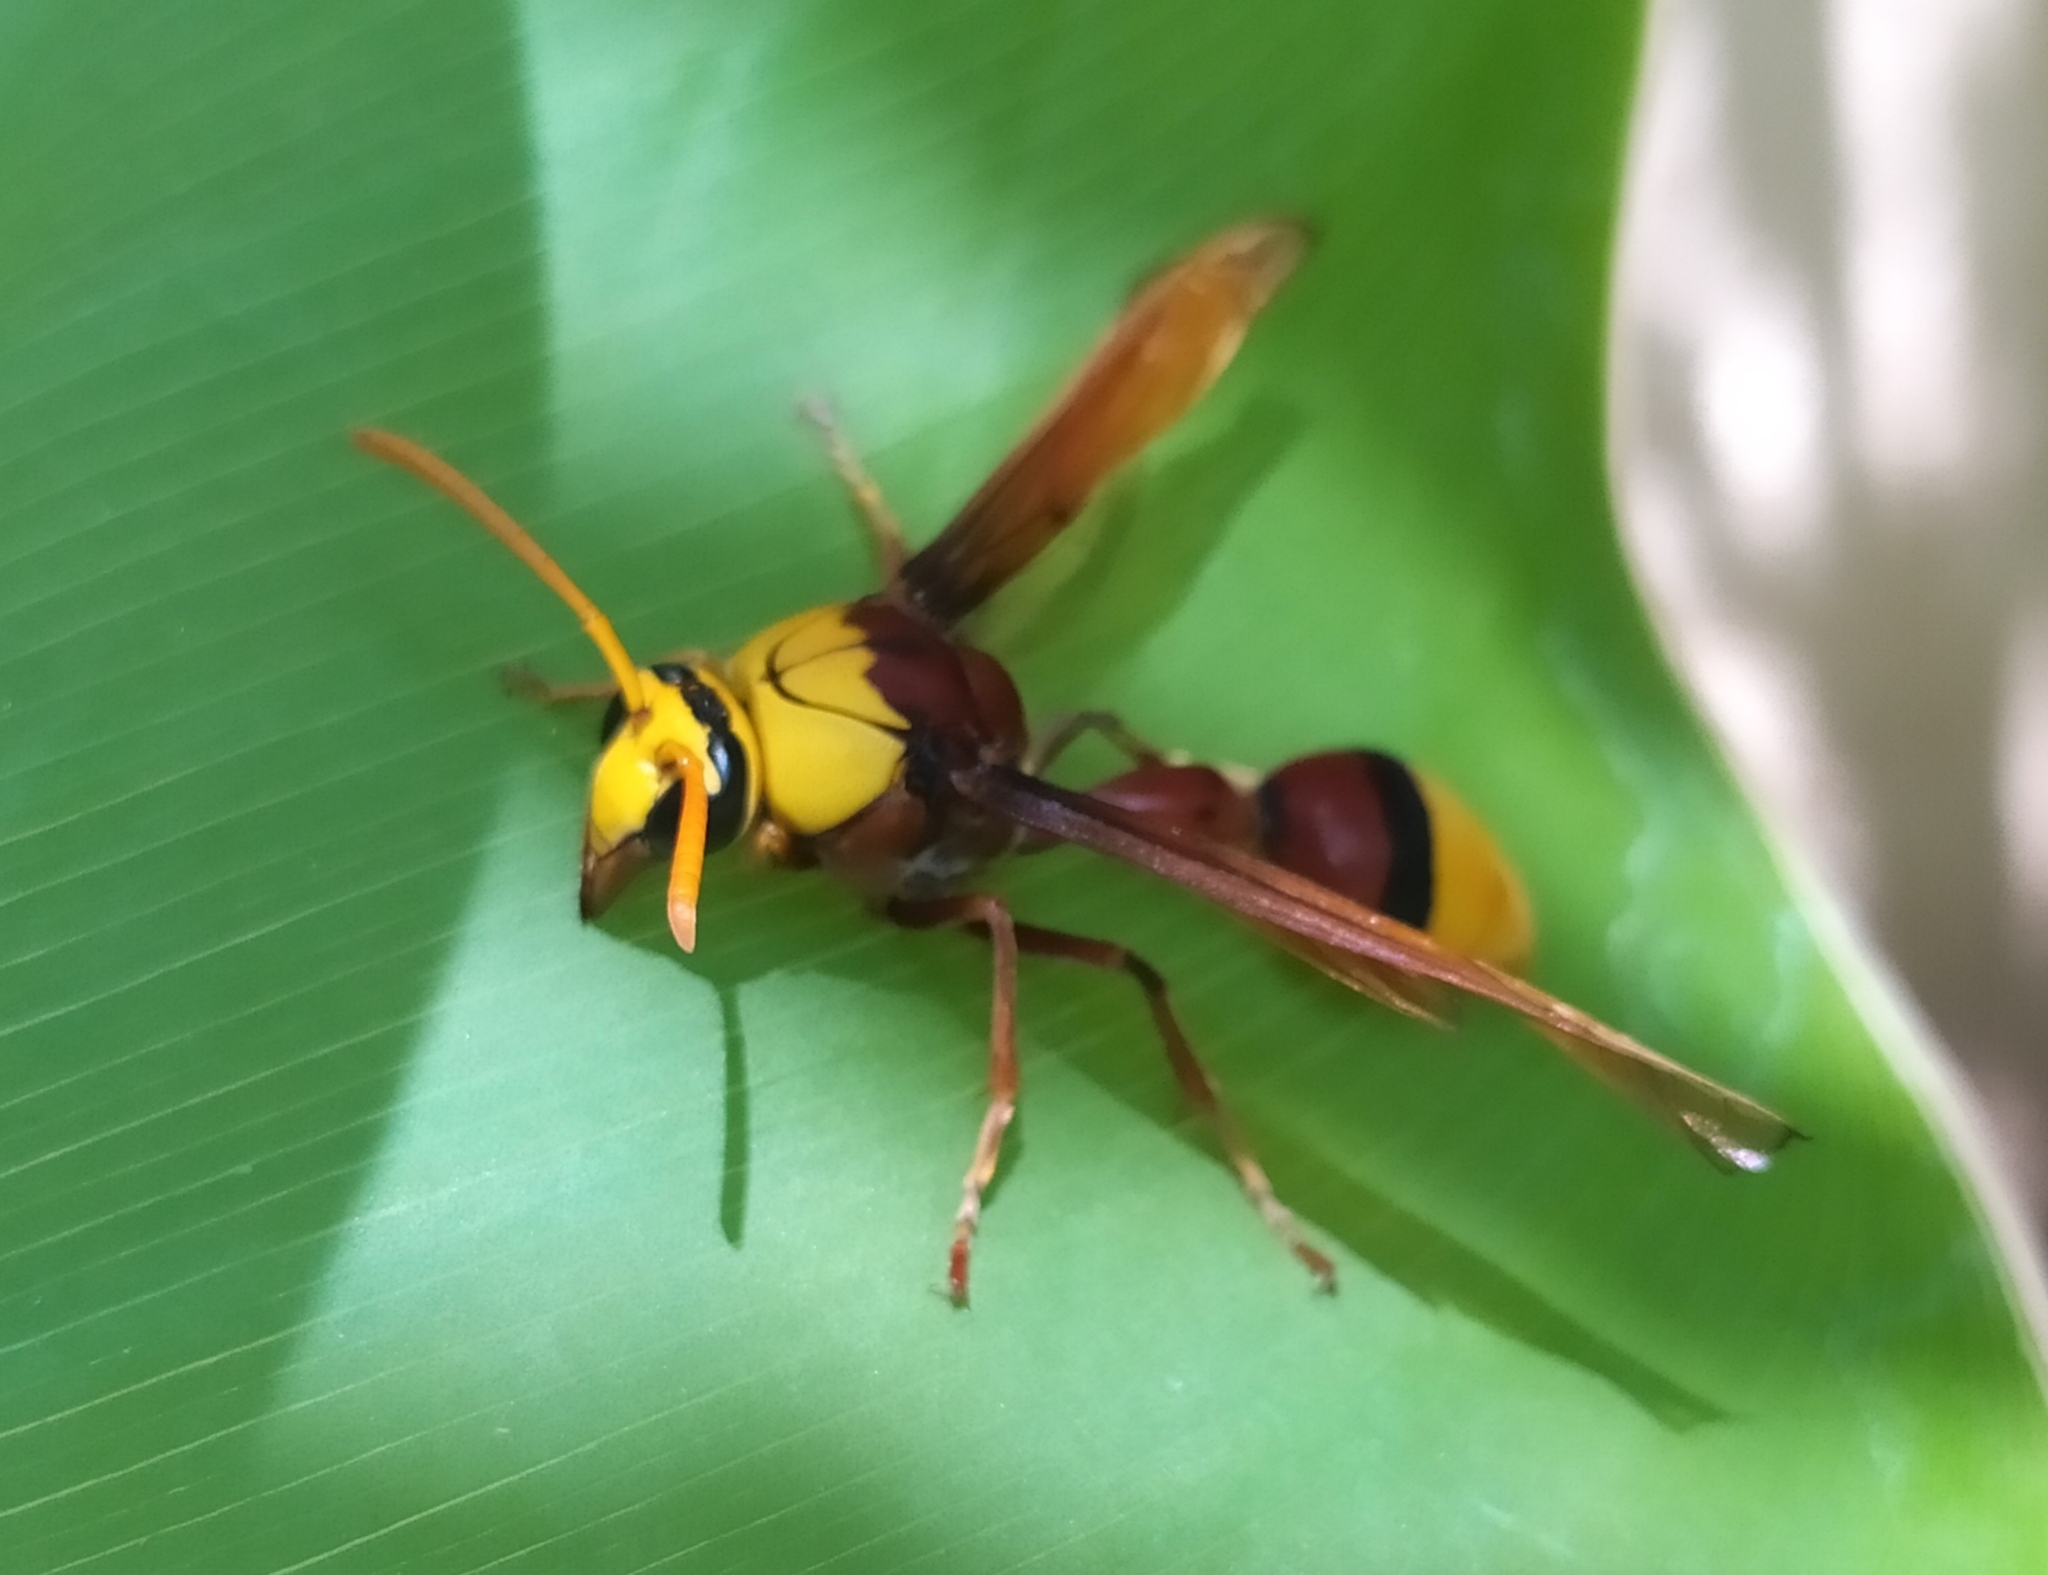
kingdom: Animalia
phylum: Arthropoda
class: Insecta
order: Hymenoptera
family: Eumenidae
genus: Delta
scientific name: Delta pyriforme
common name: Wasp
